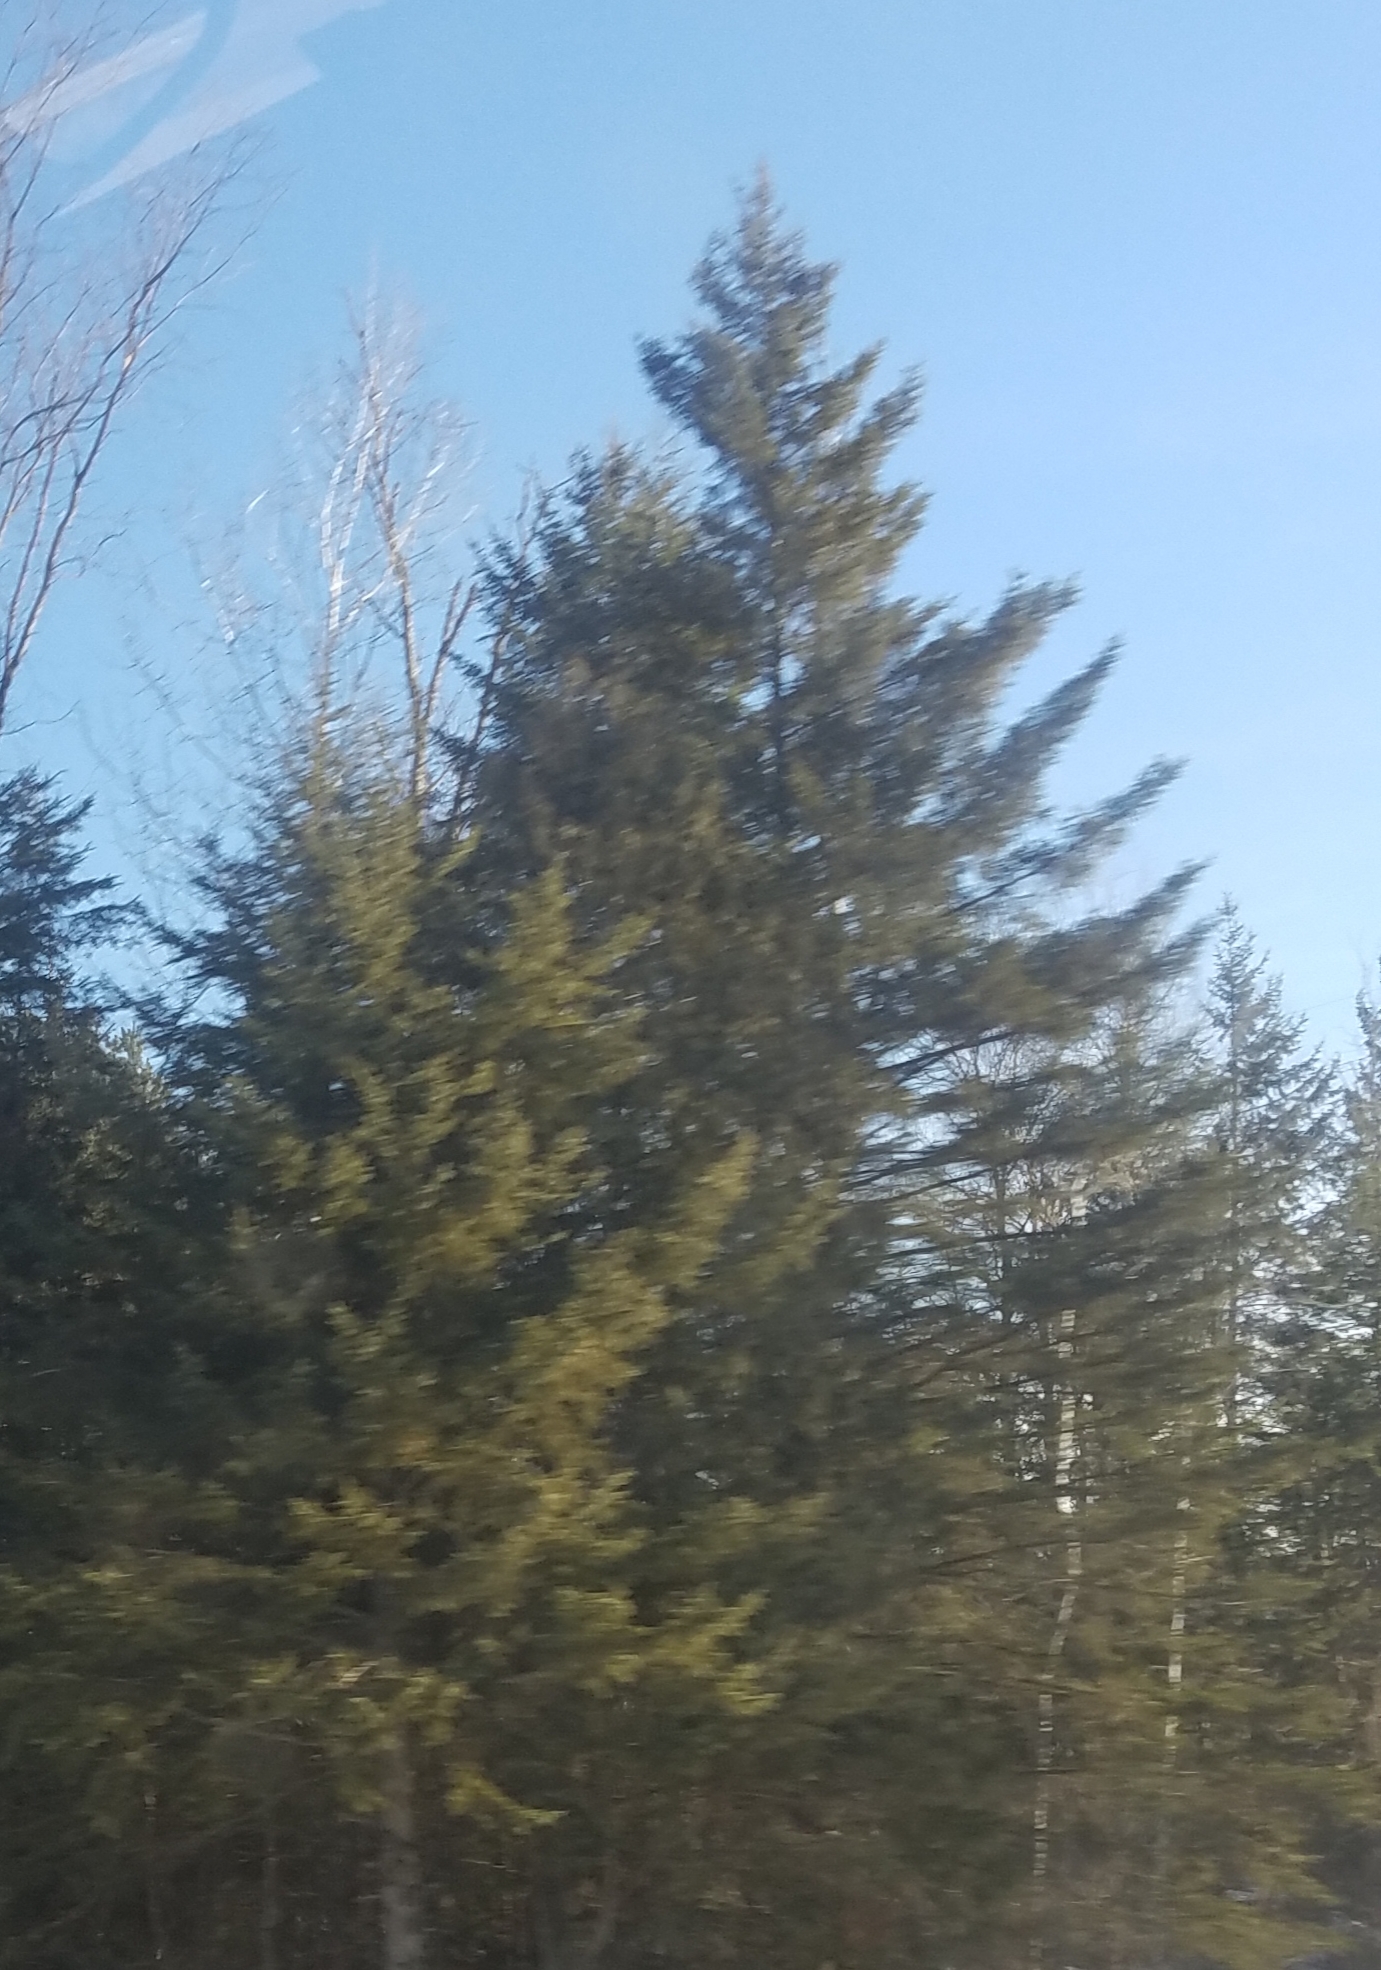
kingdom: Plantae
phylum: Tracheophyta
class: Pinopsida
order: Pinales
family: Pinaceae
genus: Pinus
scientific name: Pinus strobus
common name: Weymouth pine
